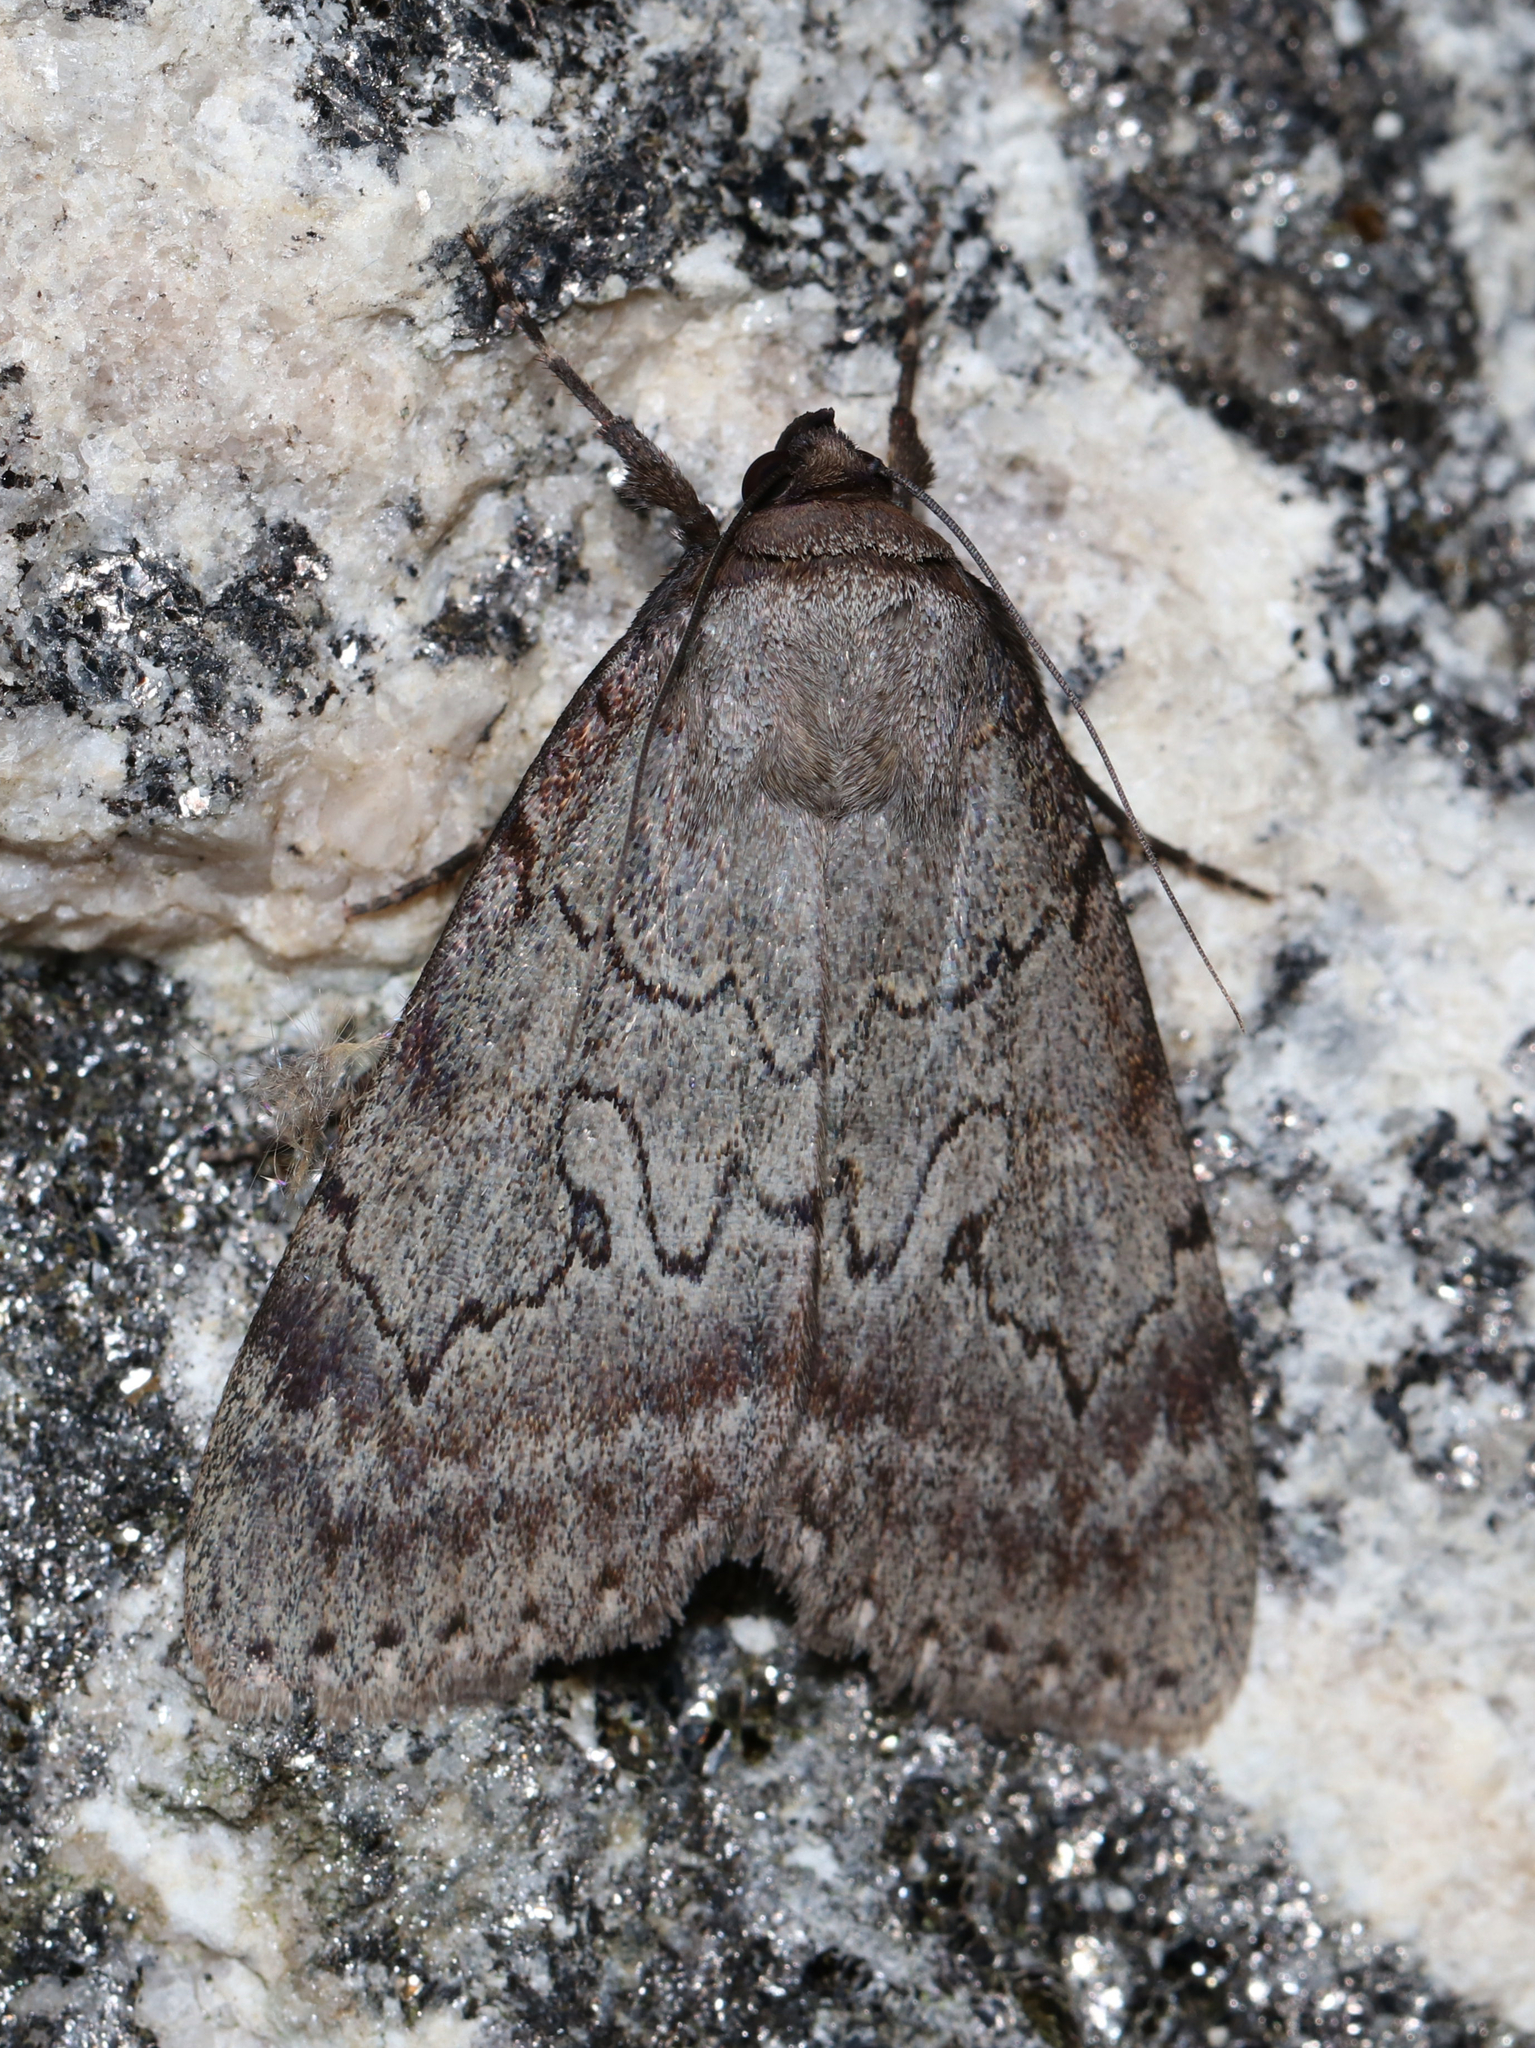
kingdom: Animalia
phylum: Arthropoda
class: Insecta
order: Lepidoptera
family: Erebidae
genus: Catocala
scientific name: Catocala serena
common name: Serene underwing
